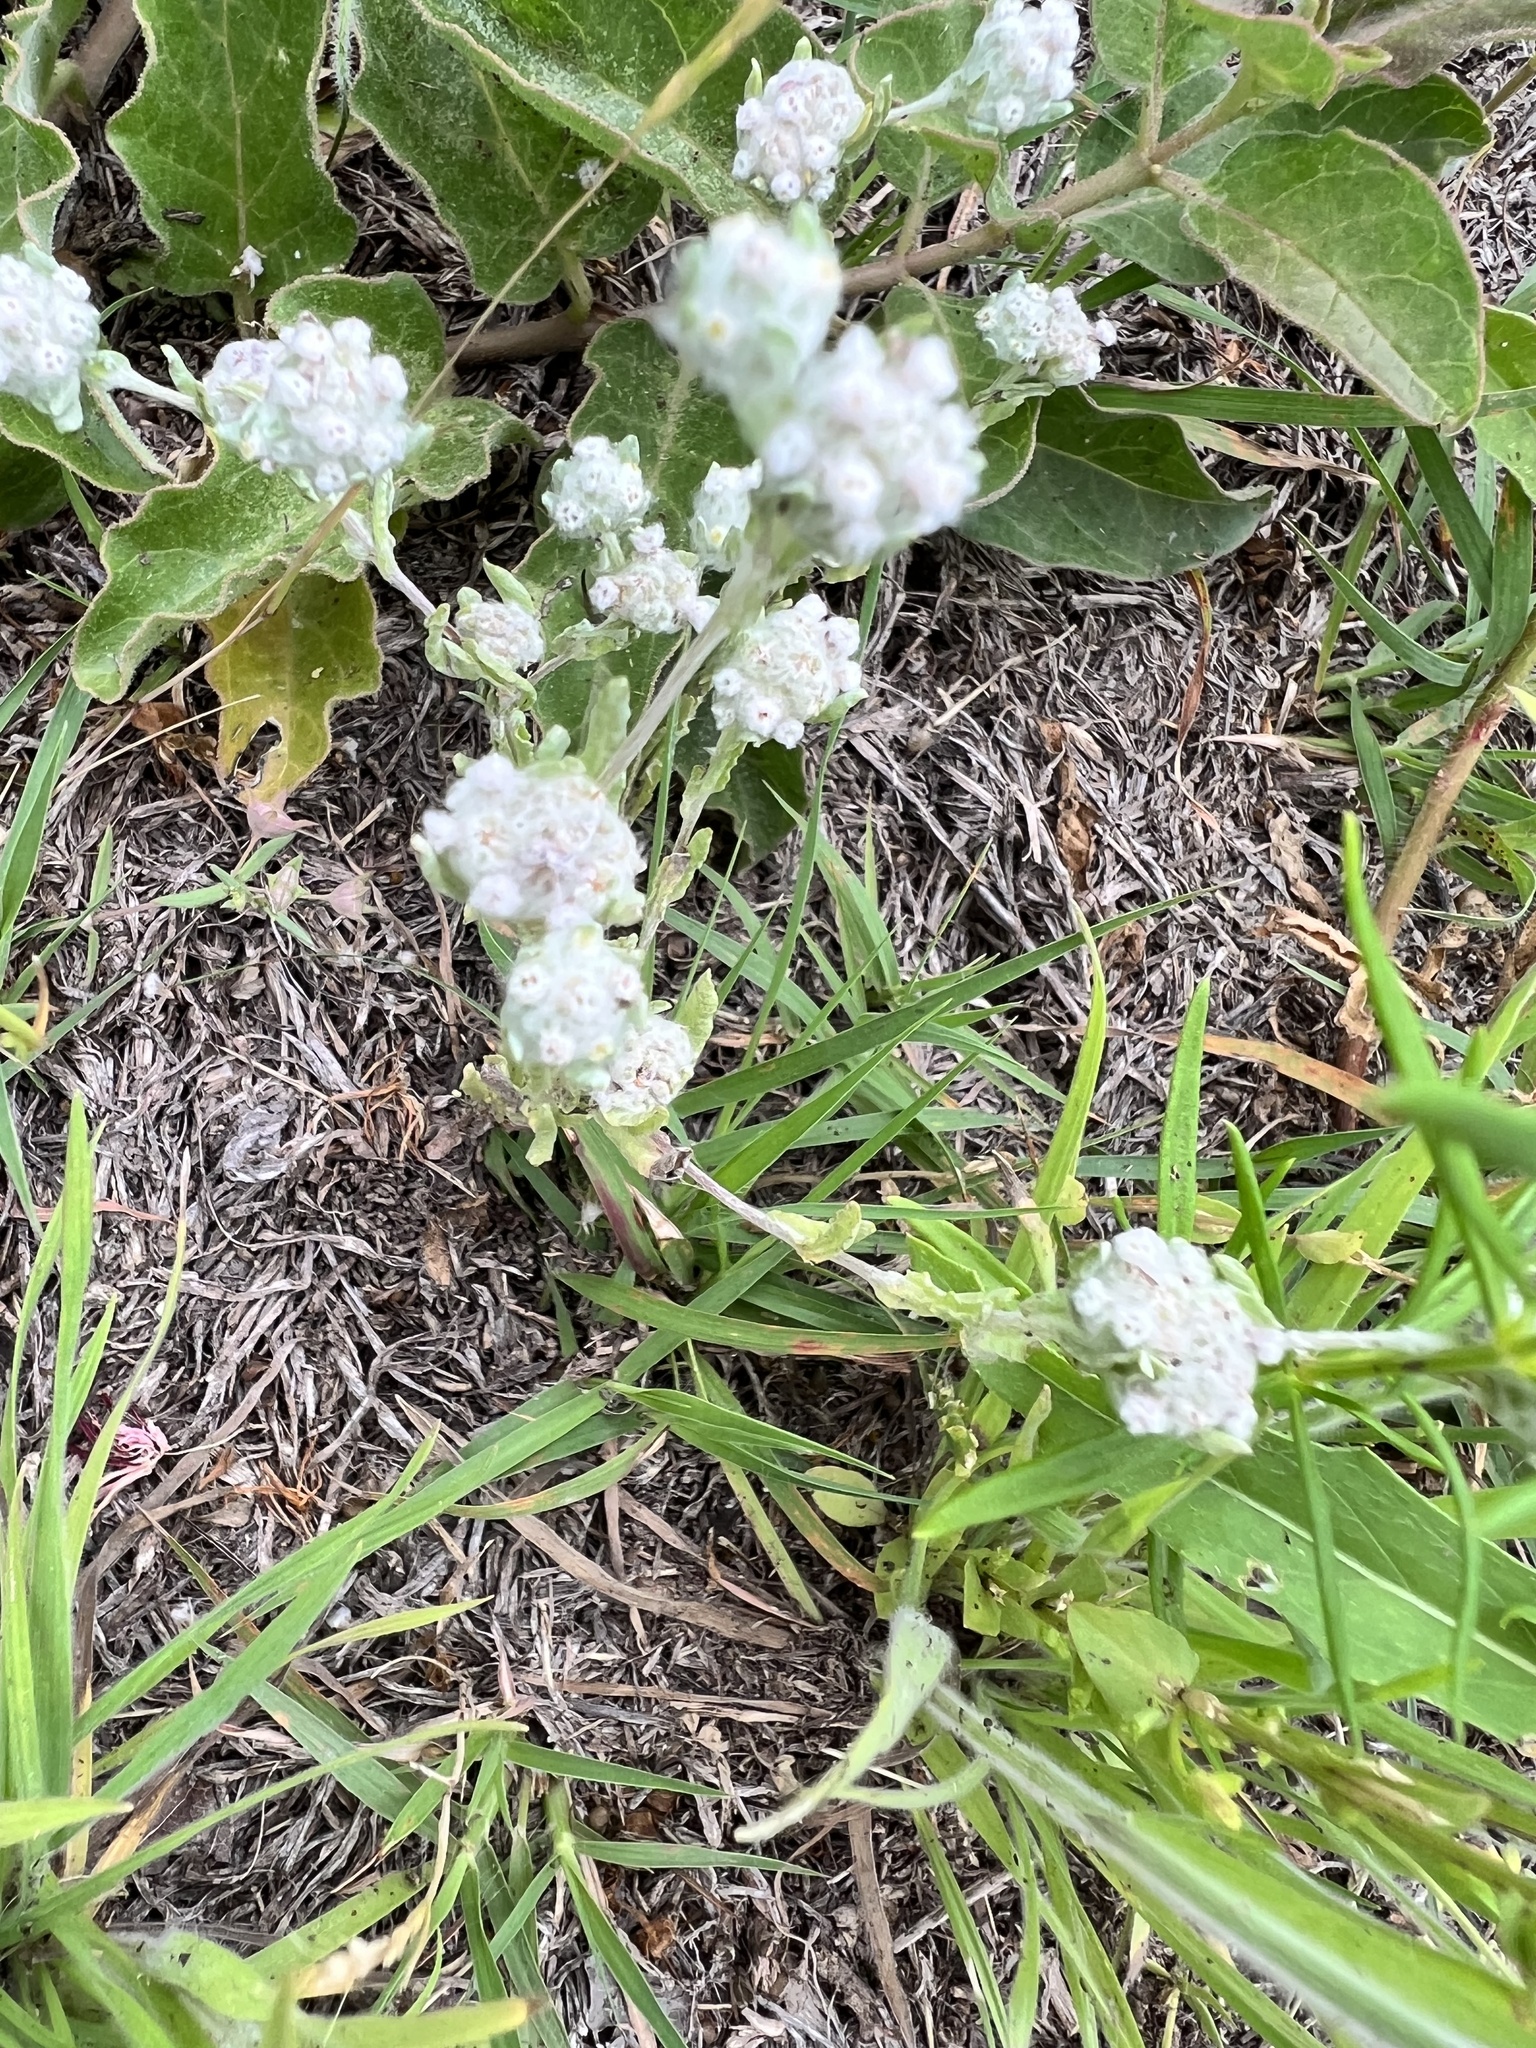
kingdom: Plantae
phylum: Tracheophyta
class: Magnoliopsida
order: Asterales
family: Asteraceae
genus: Diaperia
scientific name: Diaperia verna
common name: Many-stem rabbit-tobacco
